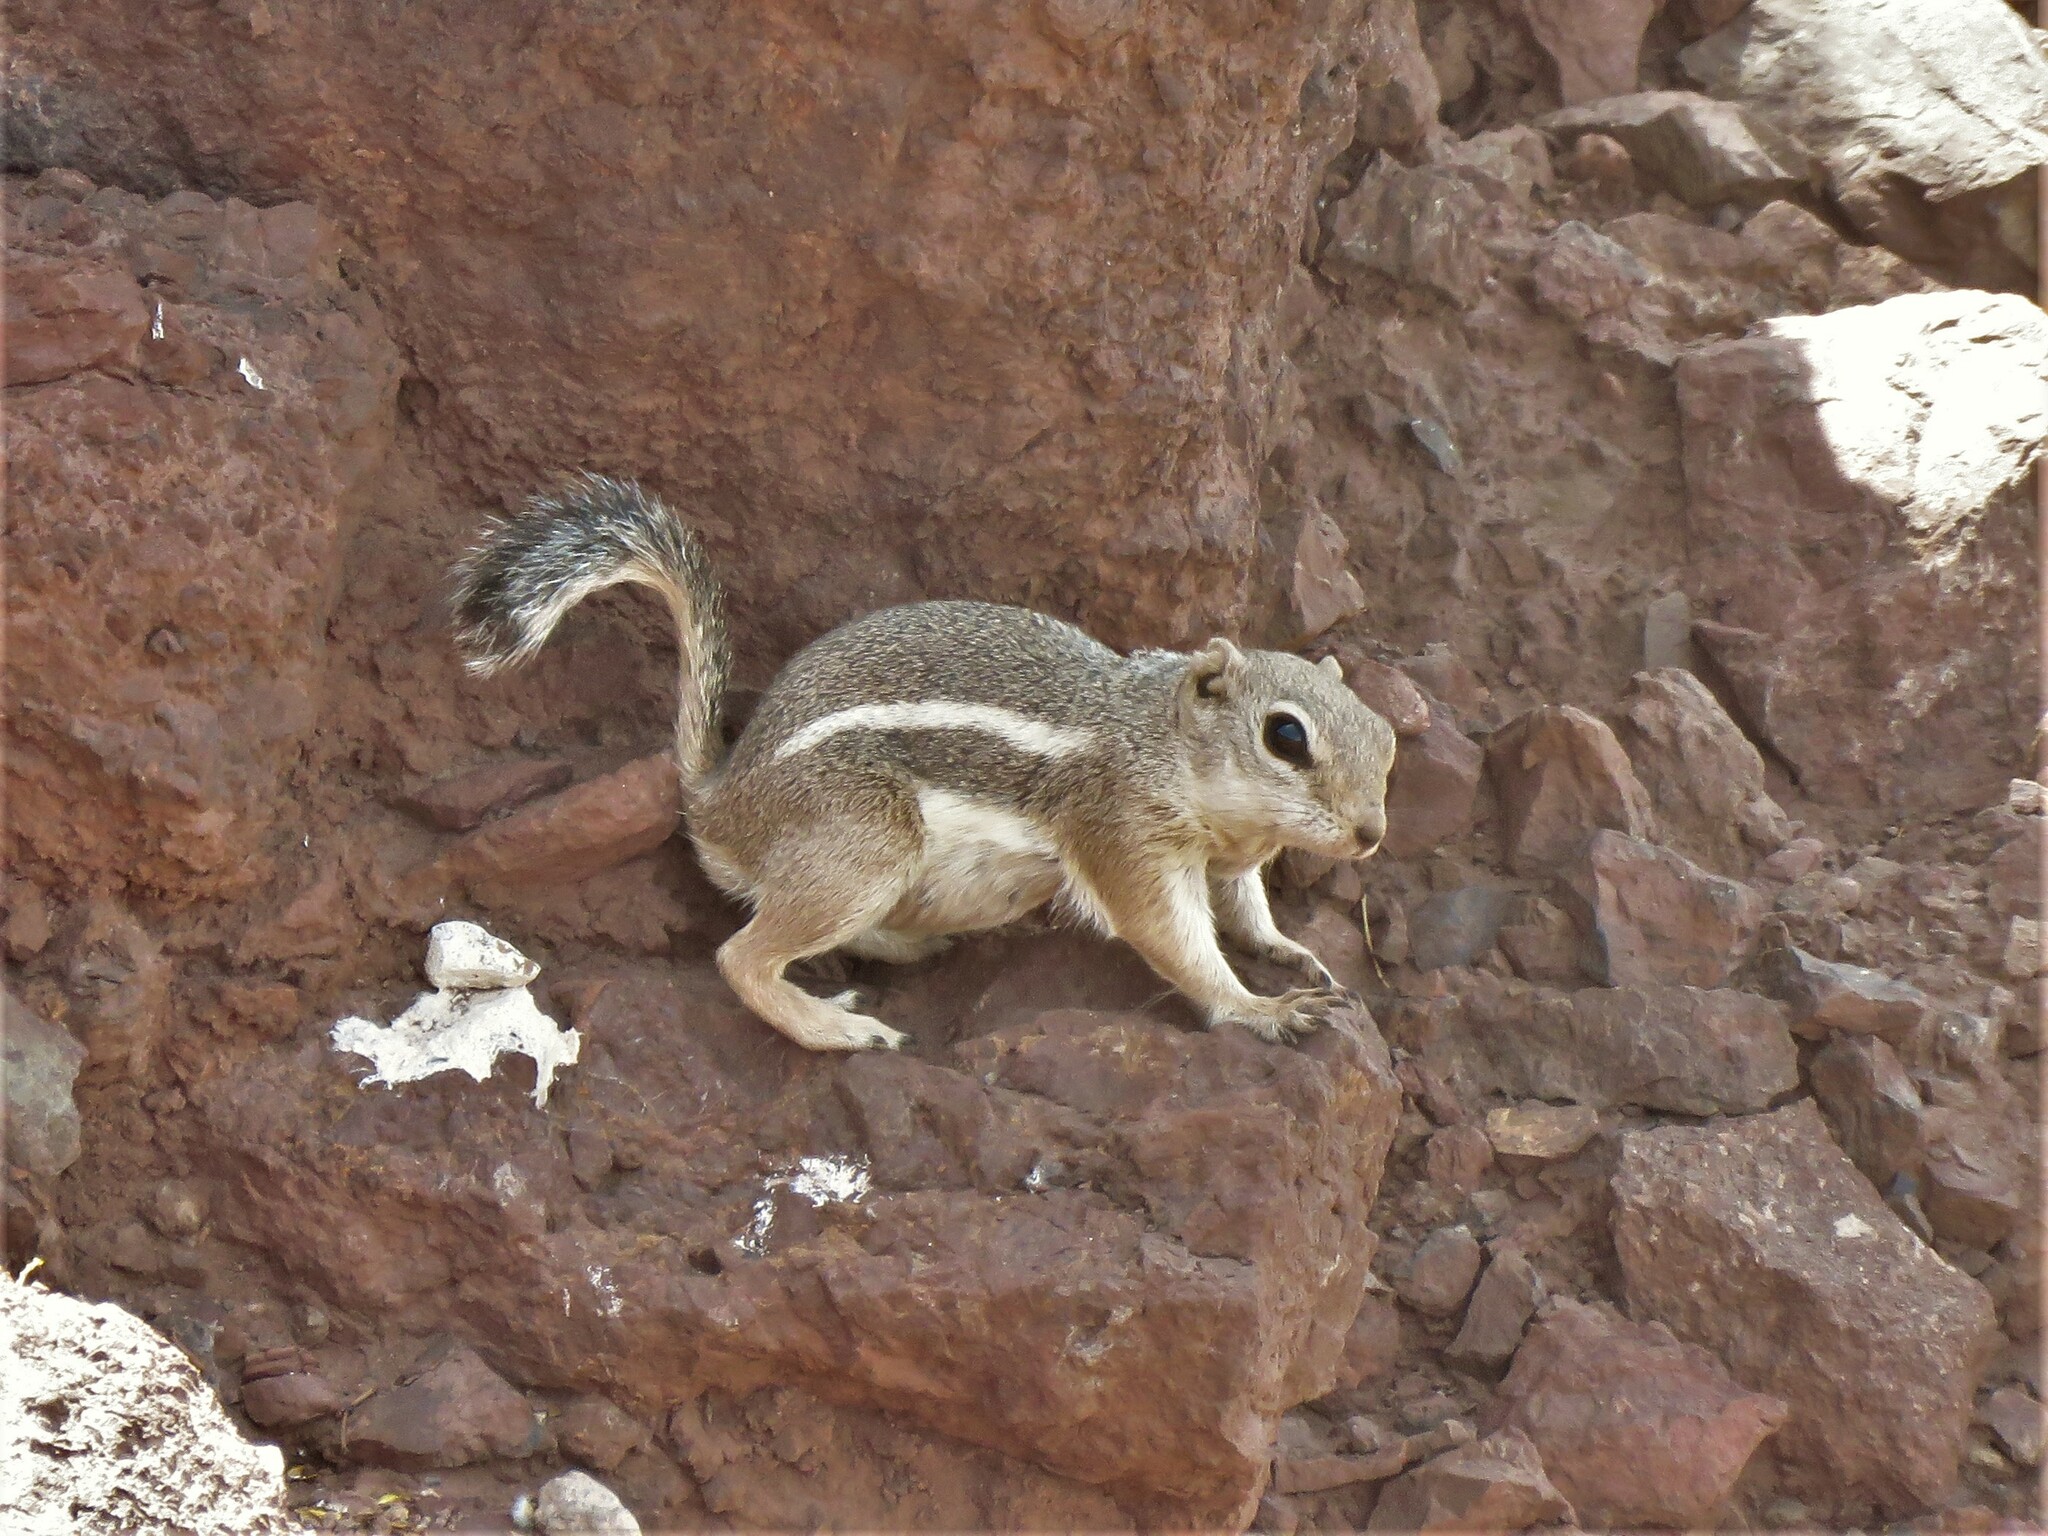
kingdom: Animalia
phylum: Chordata
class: Mammalia
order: Rodentia
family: Sciuridae
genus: Ammospermophilus
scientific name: Ammospermophilus leucurus
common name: White-tailed antelope squirrel
